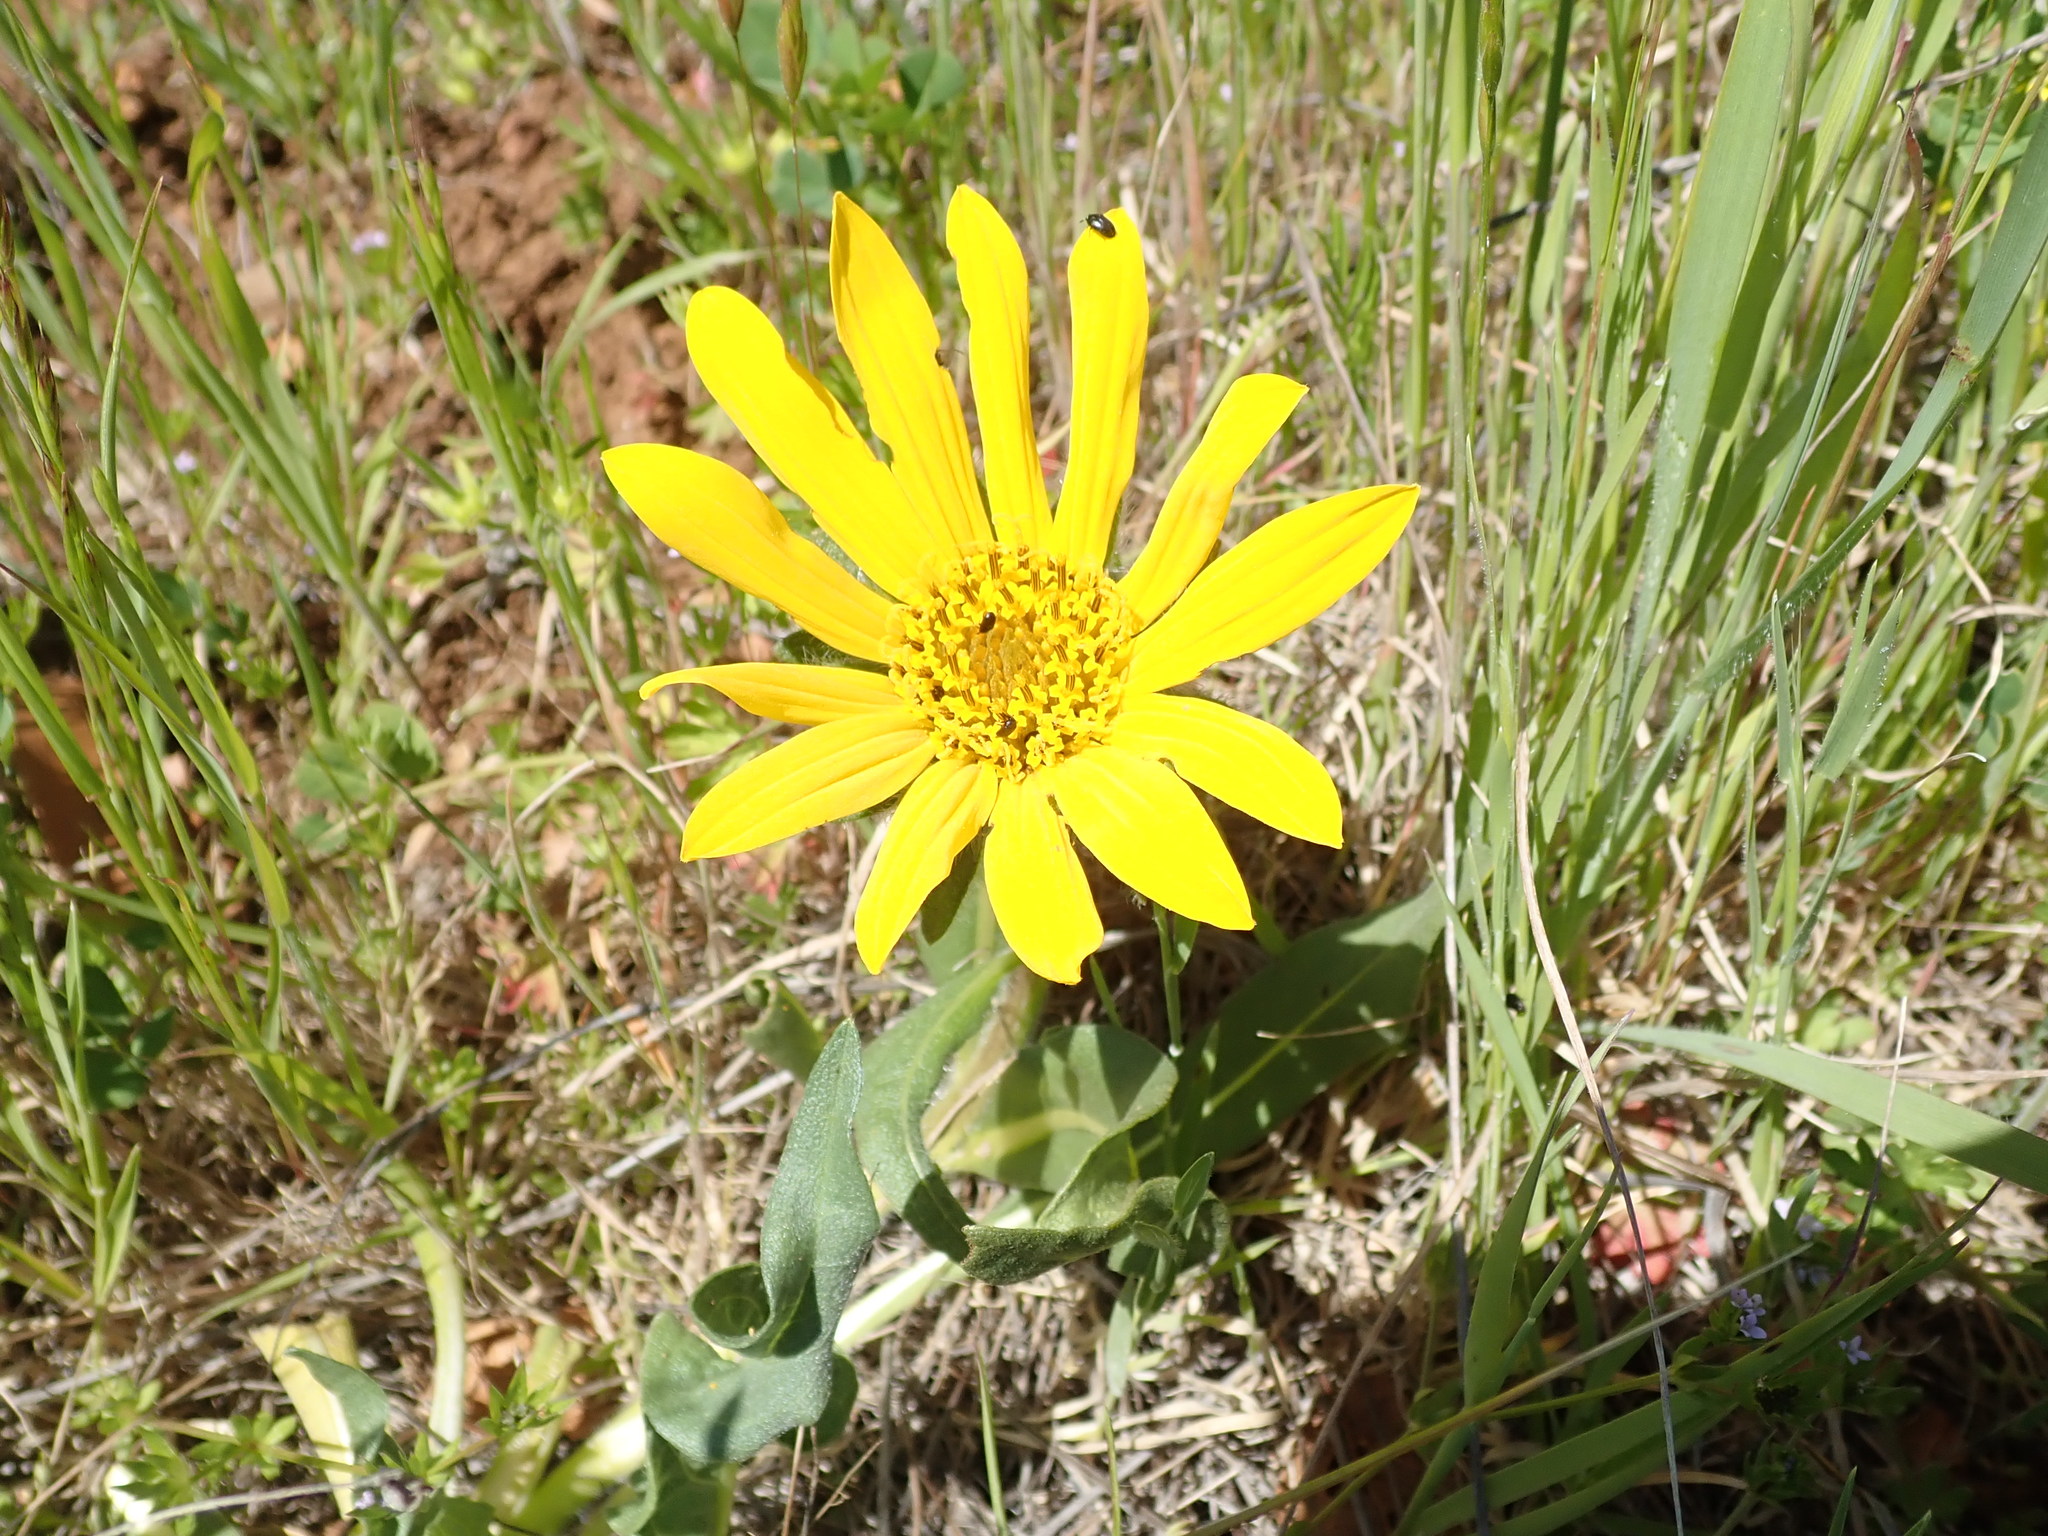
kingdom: Plantae
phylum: Tracheophyta
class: Magnoliopsida
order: Asterales
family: Asteraceae
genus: Wyethia
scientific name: Wyethia glabra
